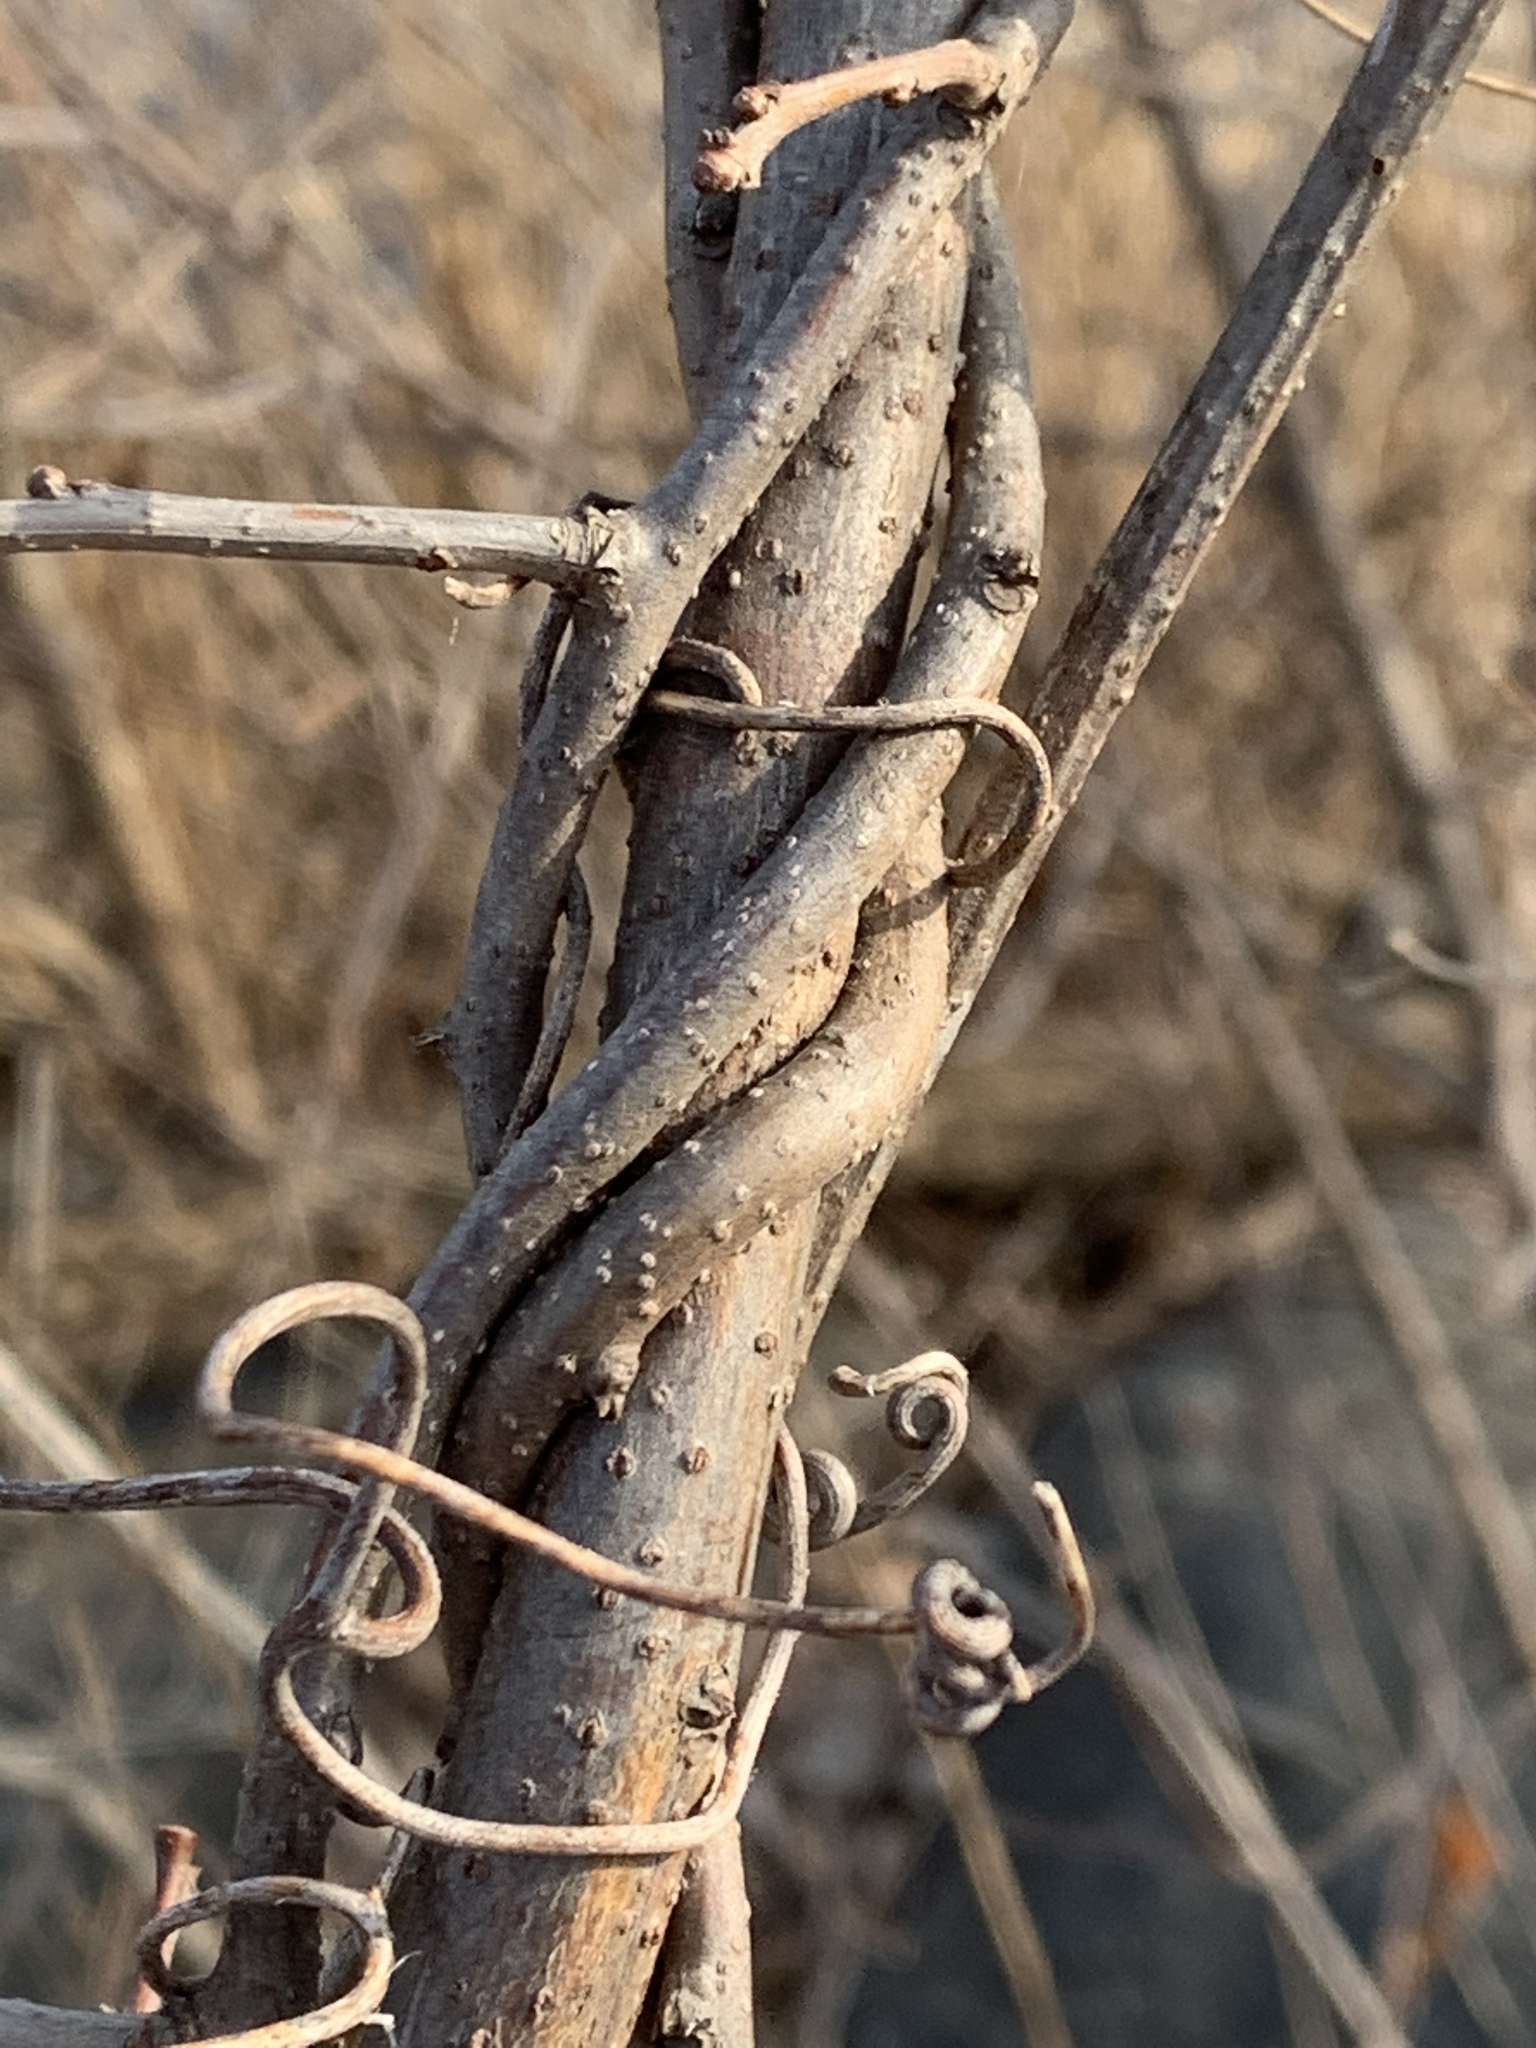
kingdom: Plantae
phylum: Tracheophyta
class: Magnoliopsida
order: Celastrales
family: Celastraceae
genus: Celastrus
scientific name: Celastrus orbiculatus
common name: Oriental bittersweet
